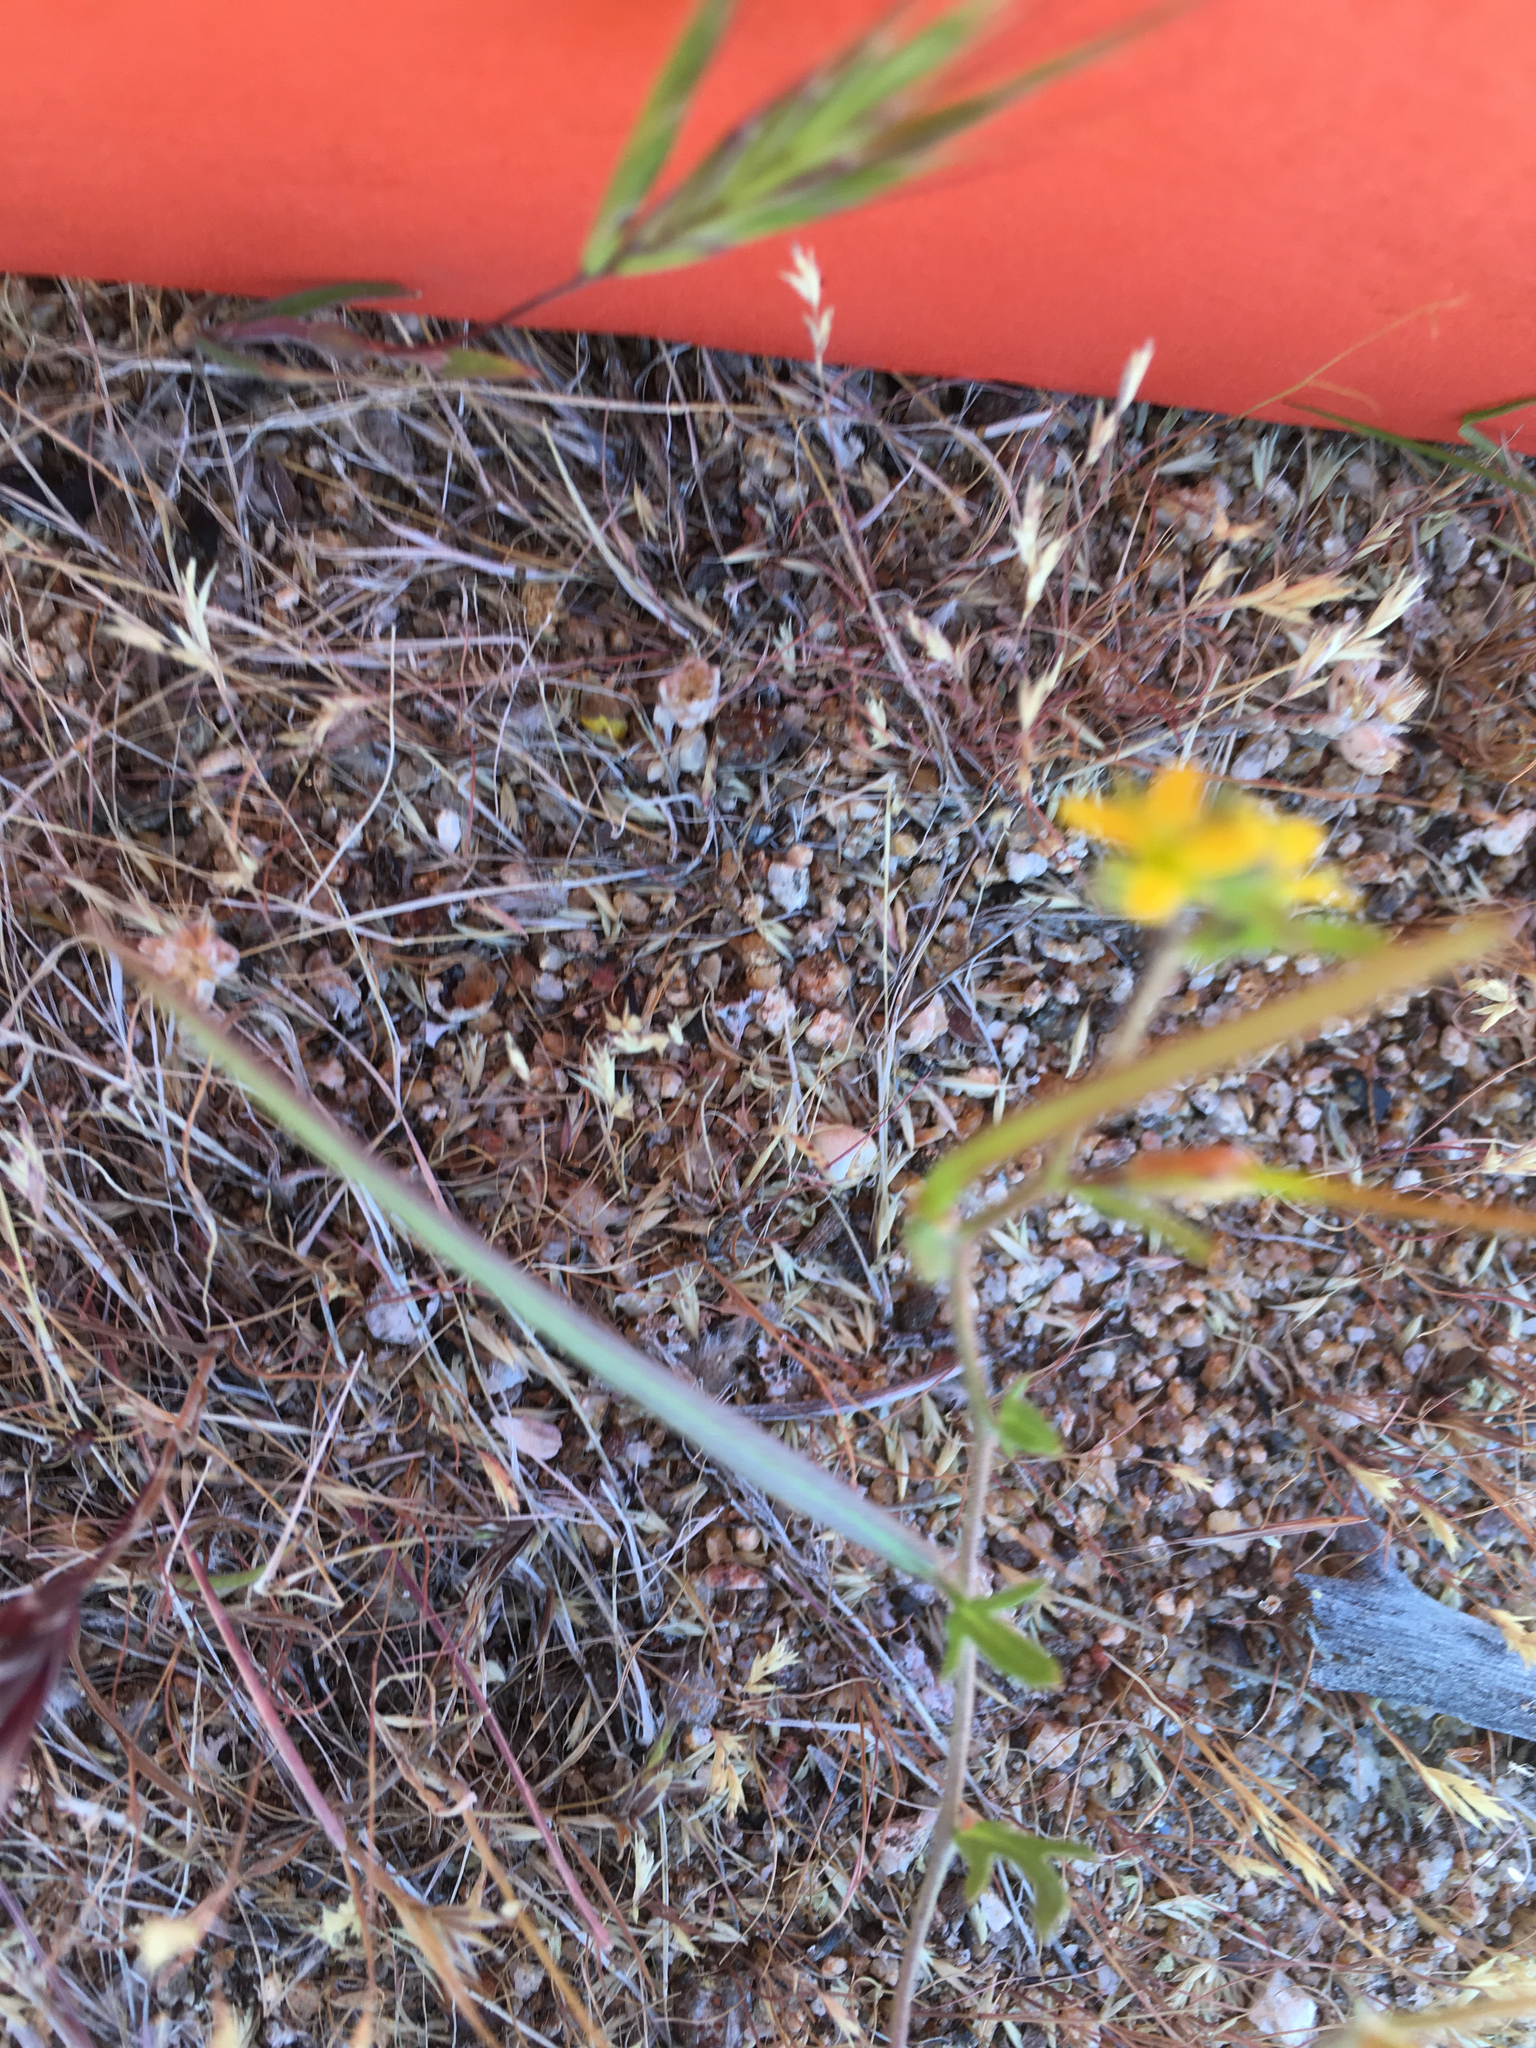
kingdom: Plantae
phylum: Tracheophyta
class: Magnoliopsida
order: Brassicales
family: Brassicaceae
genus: Tropidocarpum
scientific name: Tropidocarpum gracile
